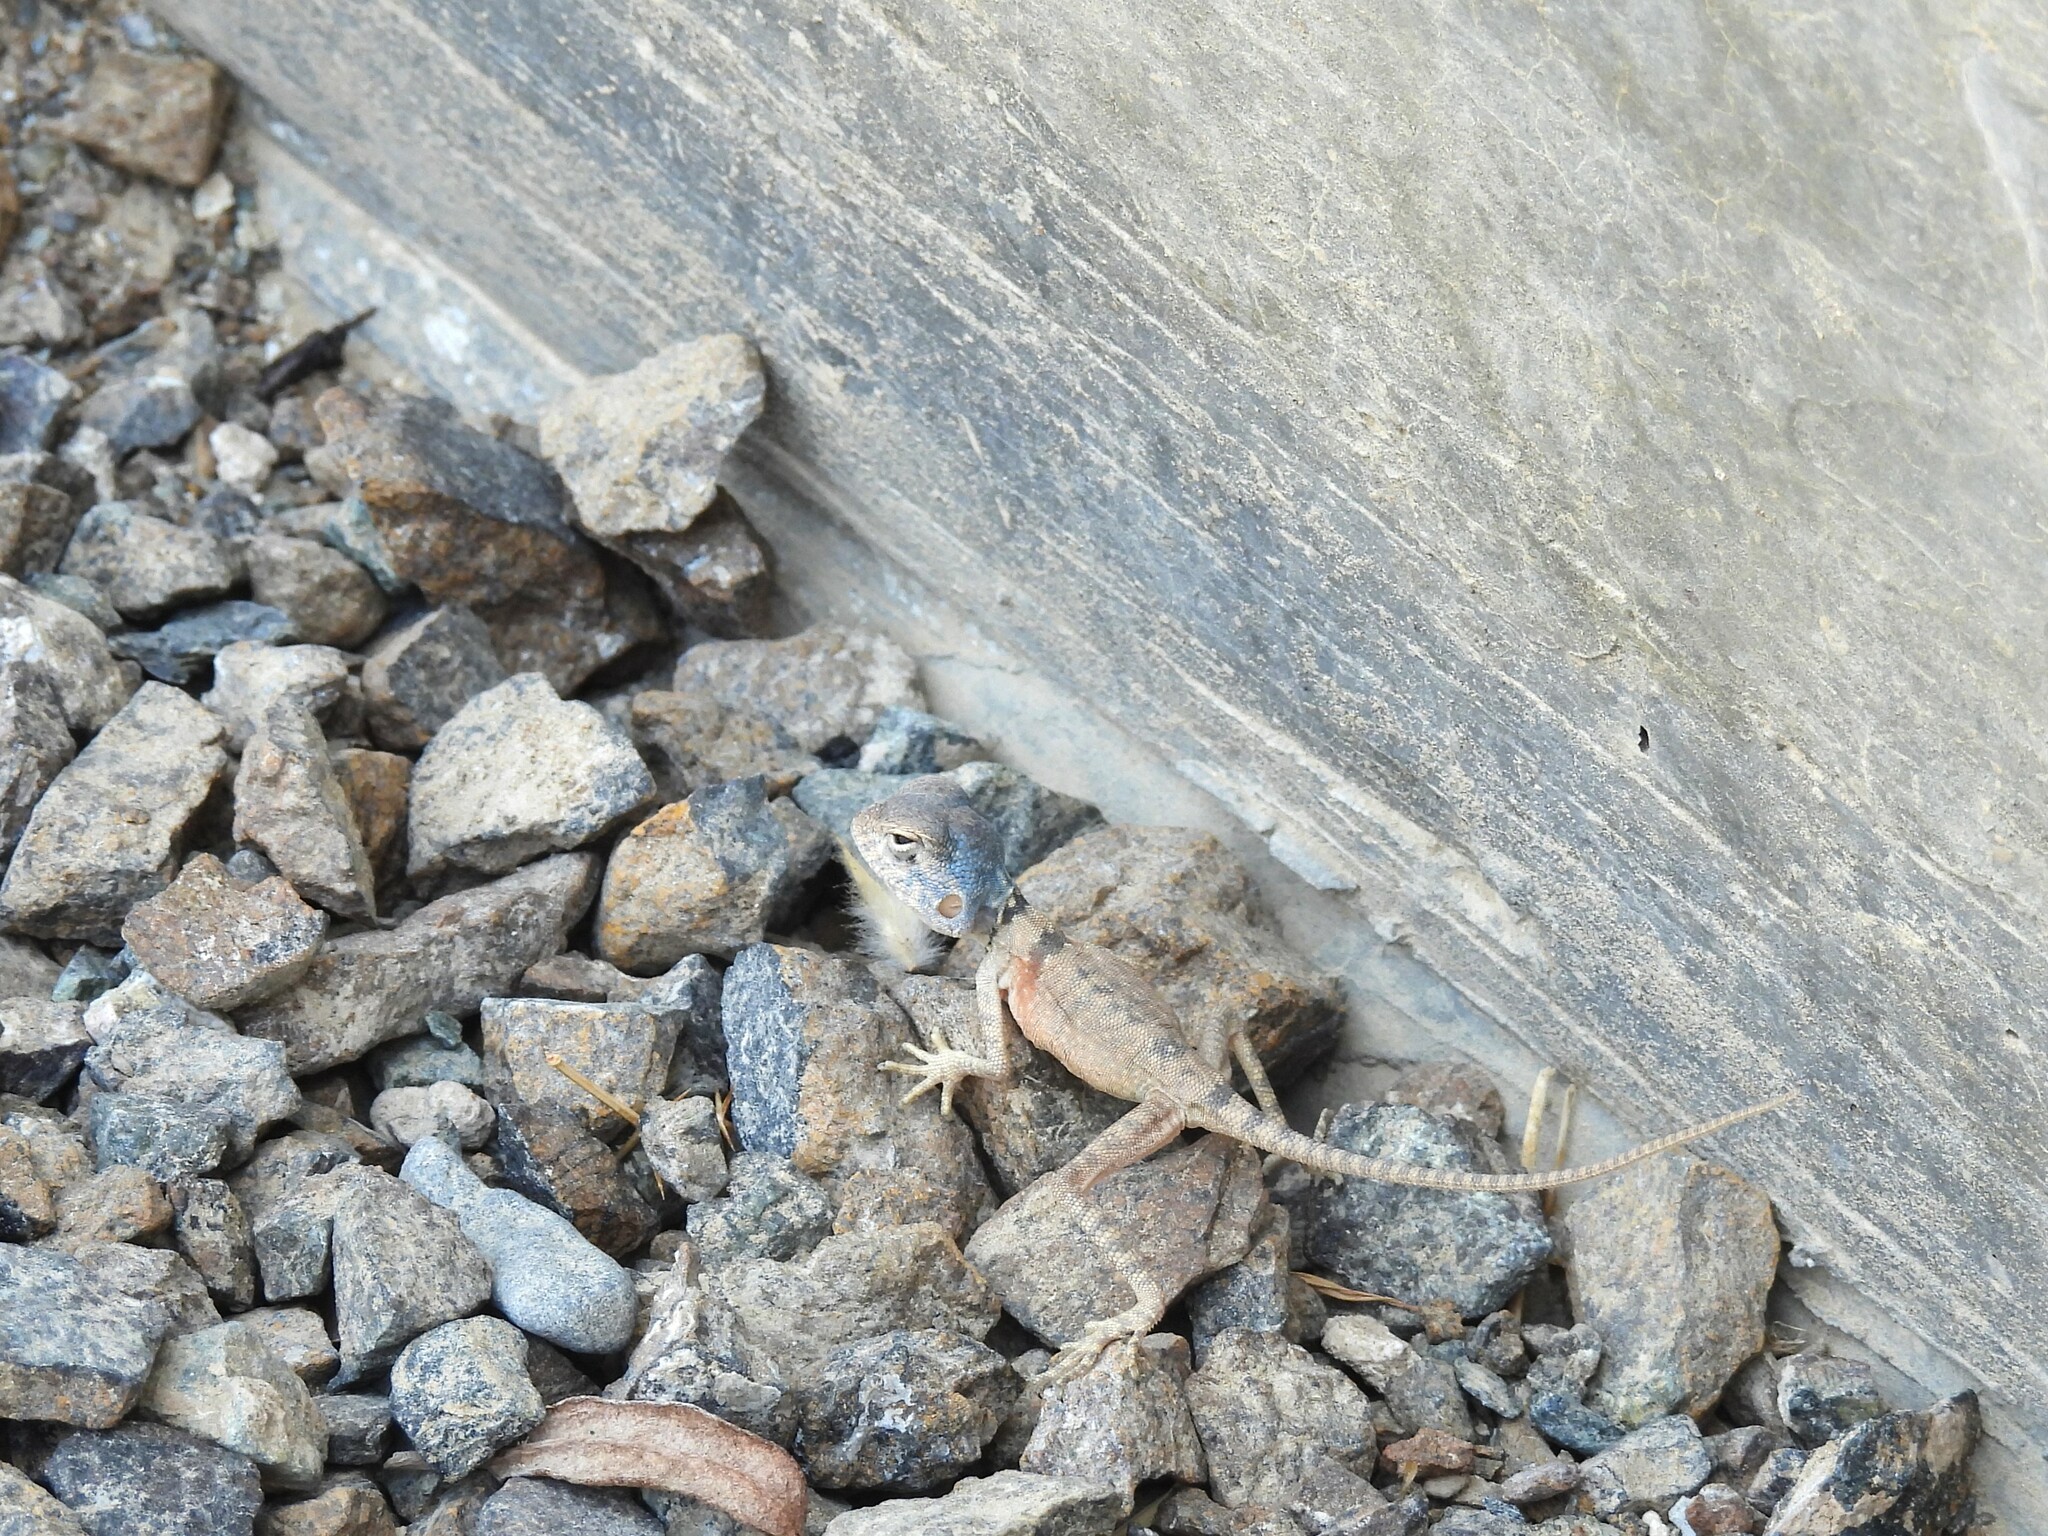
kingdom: Animalia
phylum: Chordata
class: Squamata
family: Agamidae
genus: Pseudotrapelus
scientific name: Pseudotrapelus jensvindumi
